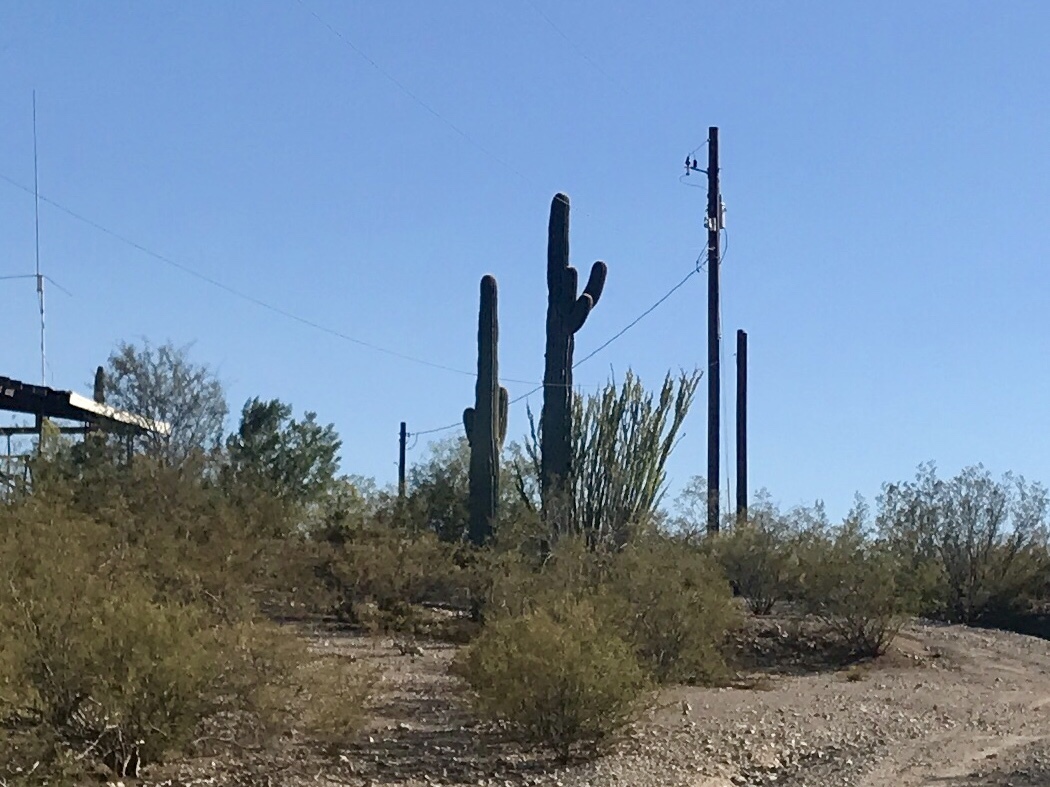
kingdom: Plantae
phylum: Tracheophyta
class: Magnoliopsida
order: Caryophyllales
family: Cactaceae
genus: Carnegiea
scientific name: Carnegiea gigantea
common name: Saguaro
